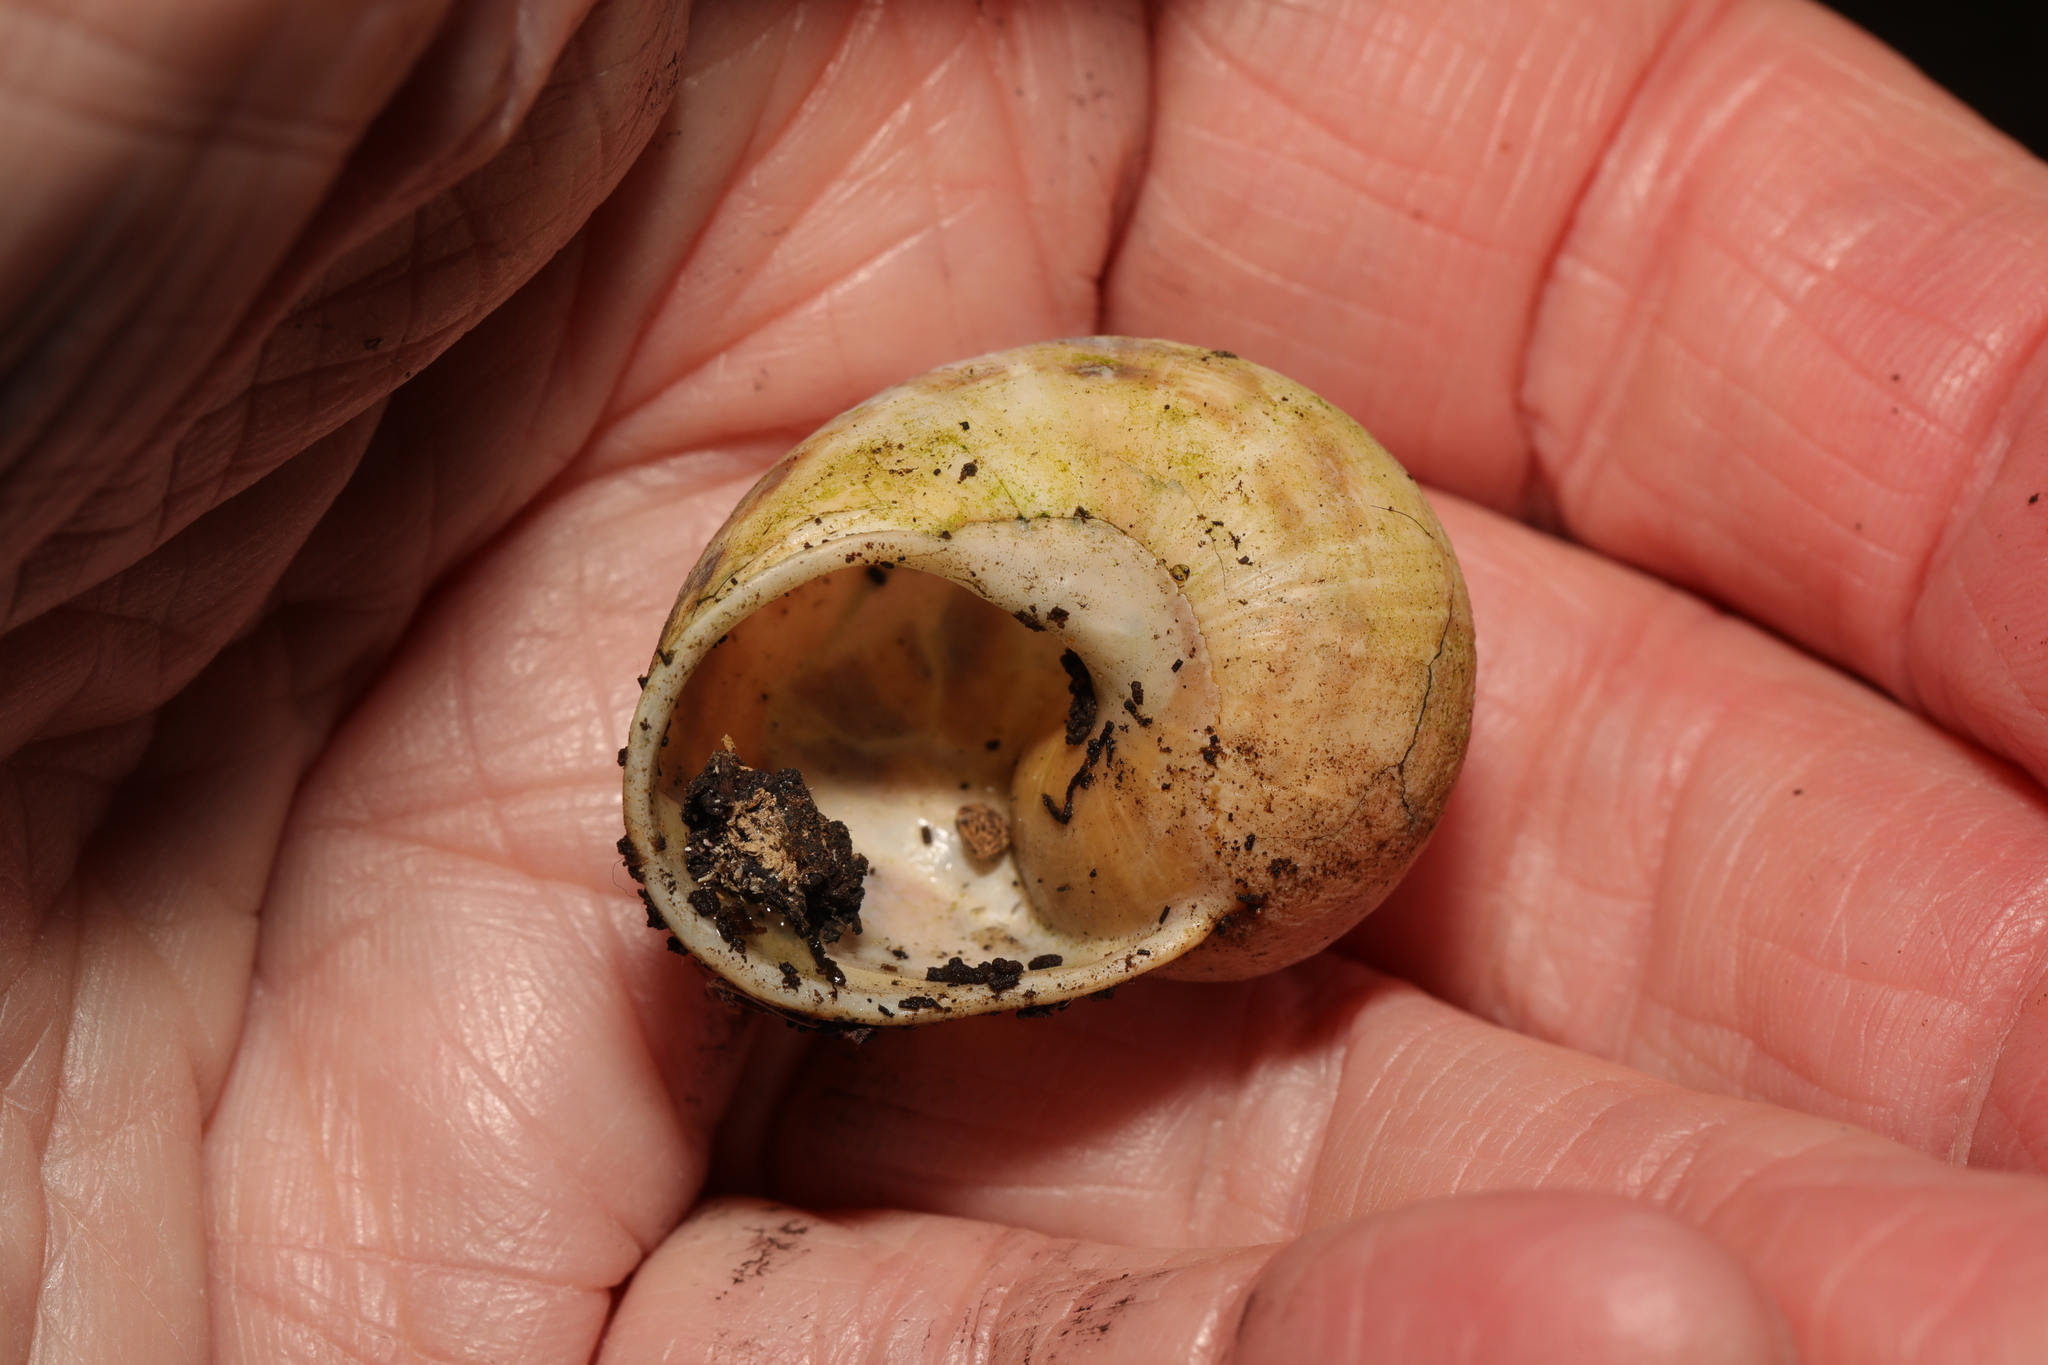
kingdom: Animalia
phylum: Mollusca
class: Gastropoda
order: Stylommatophora
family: Helicidae
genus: Cornu
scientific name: Cornu aspersum
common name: Brown garden snail
